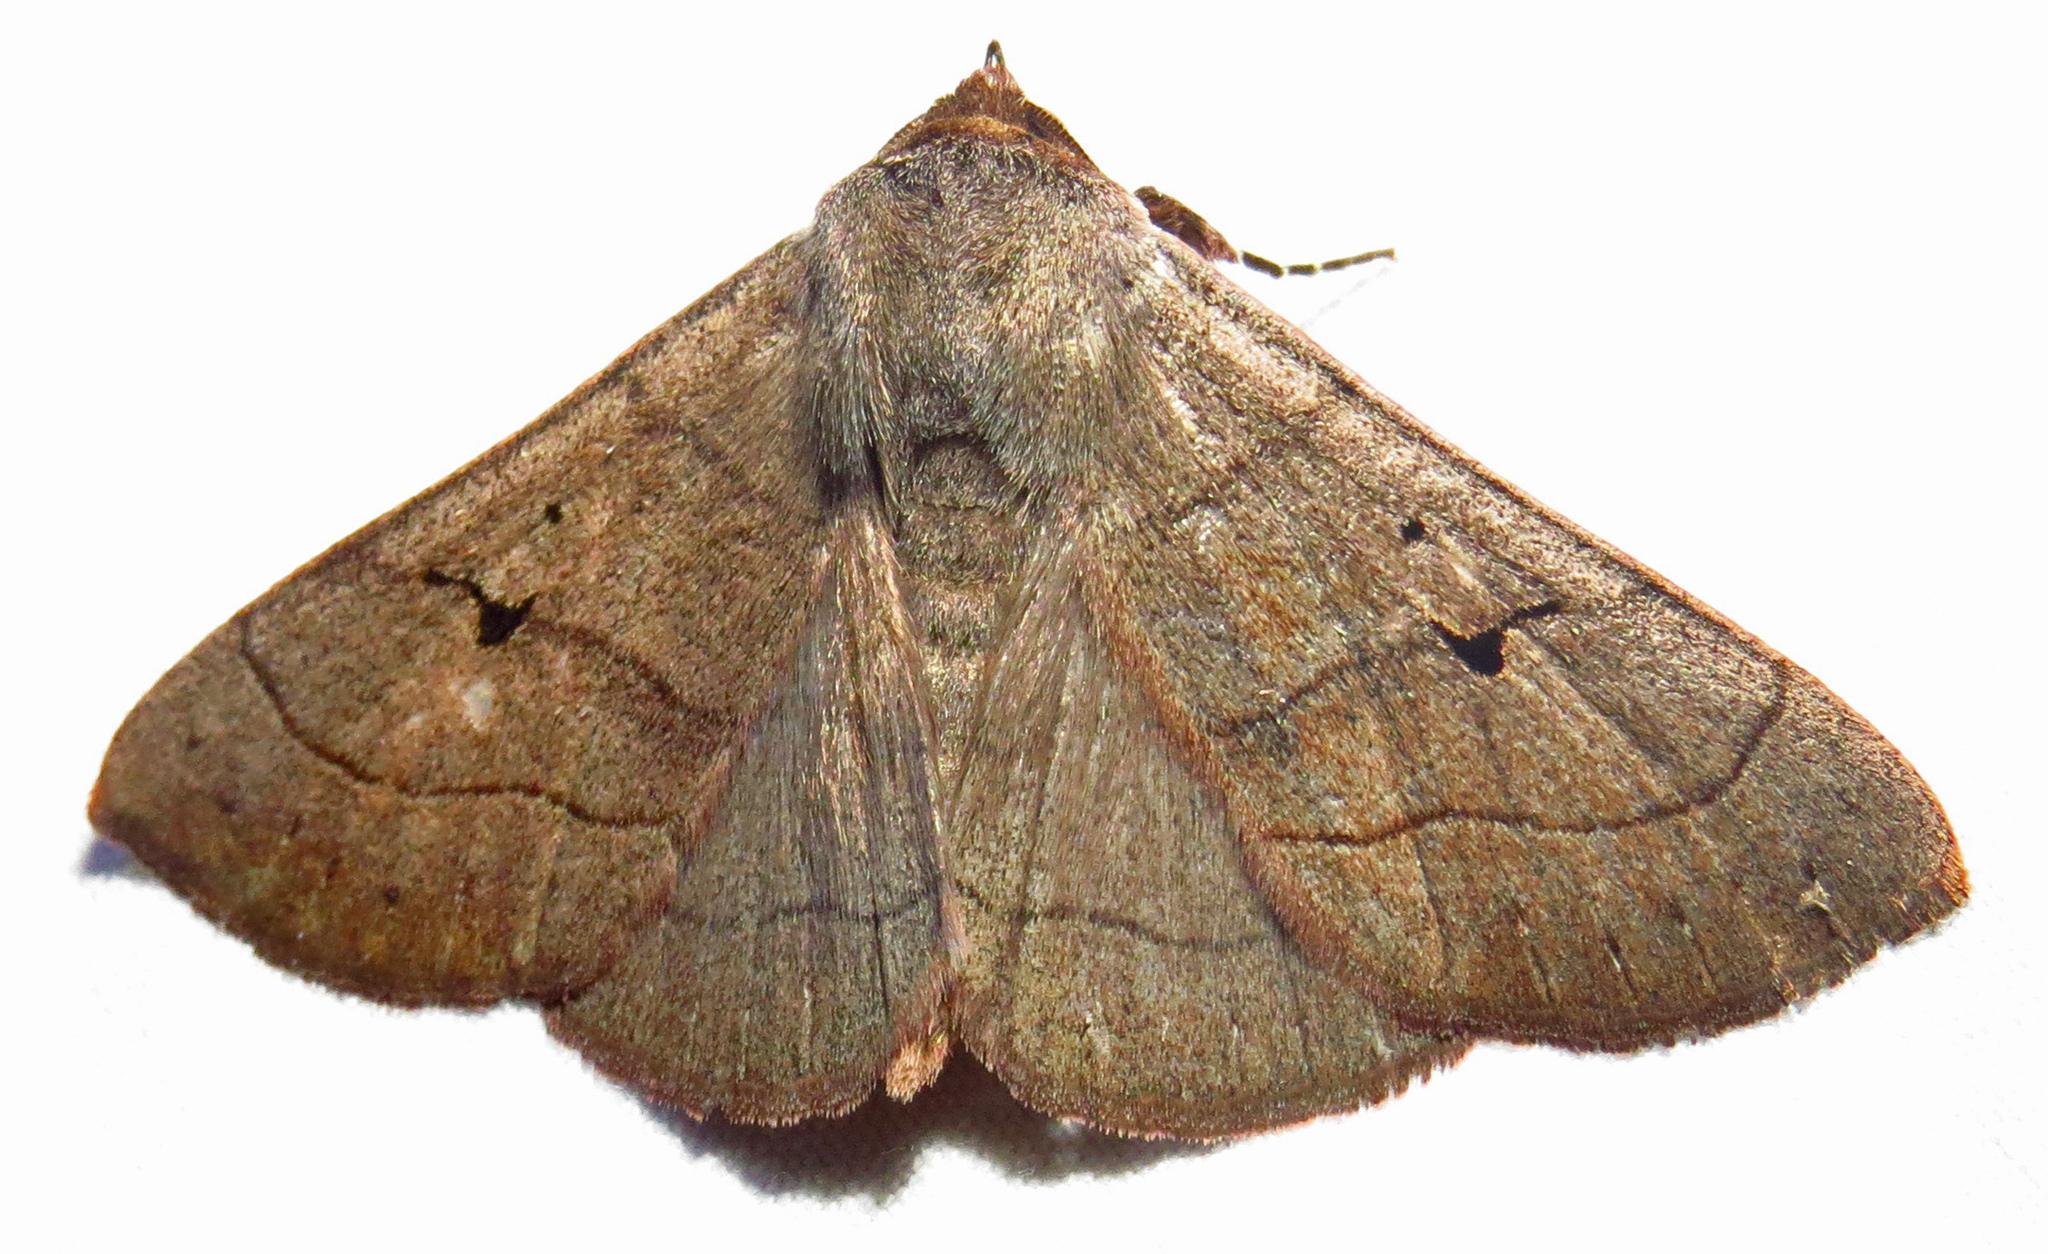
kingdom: Animalia
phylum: Arthropoda
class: Insecta
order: Lepidoptera
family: Erebidae
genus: Panopoda
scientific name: Panopoda carneicosta
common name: Brown panopoda moth
